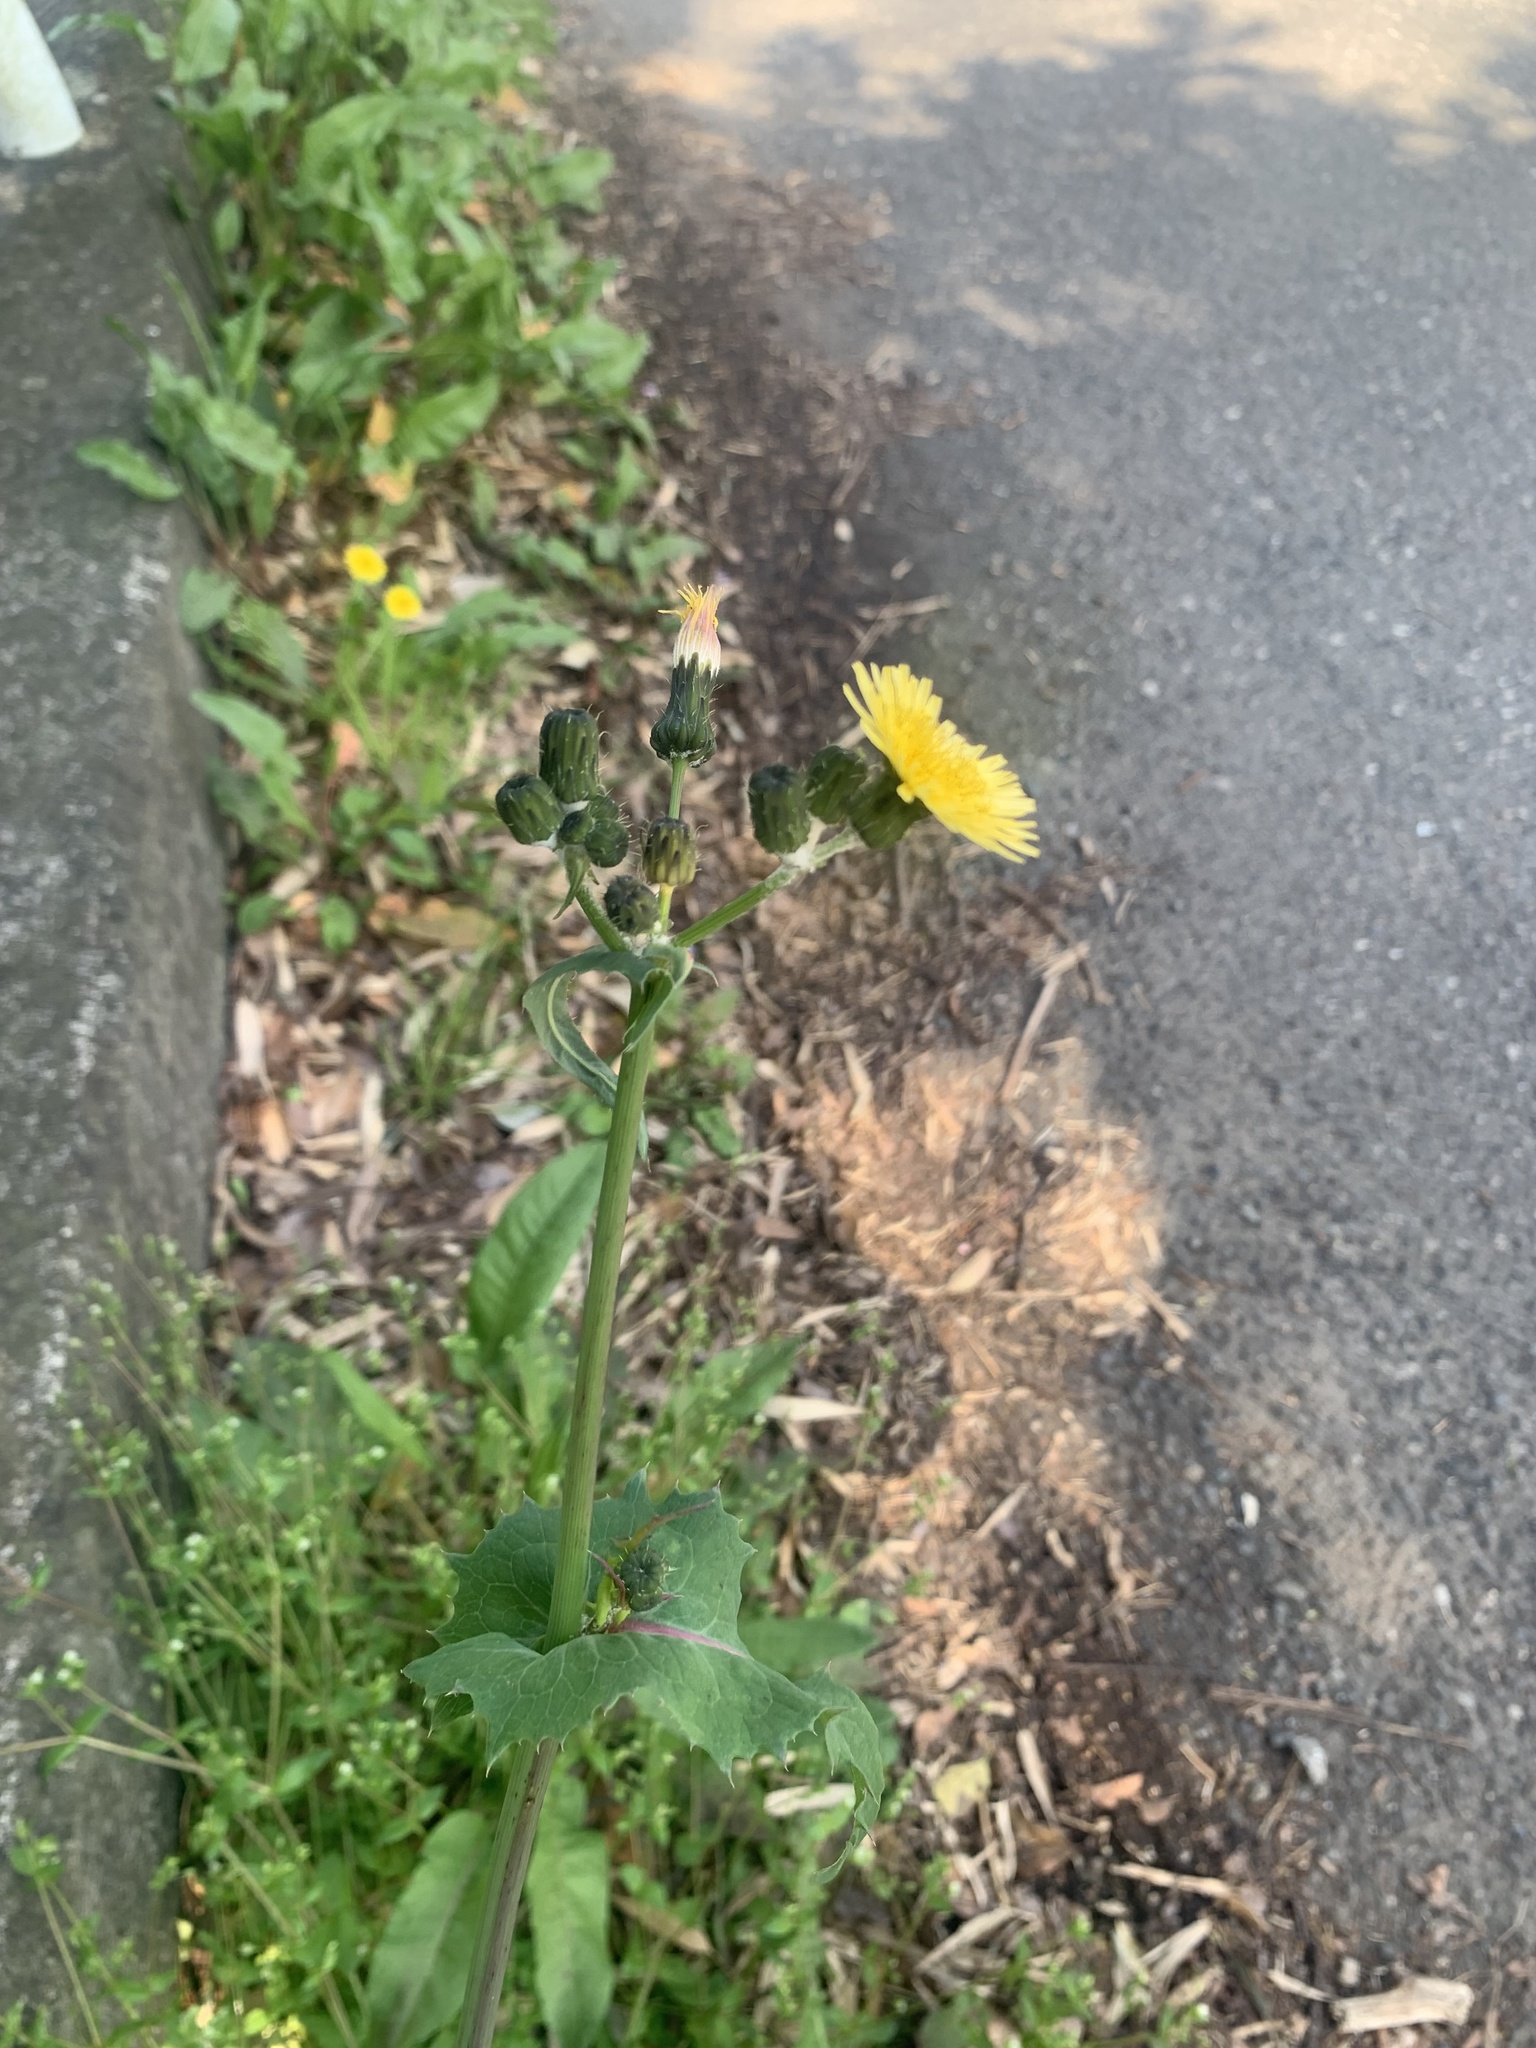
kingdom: Plantae
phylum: Tracheophyta
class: Magnoliopsida
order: Asterales
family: Asteraceae
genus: Sonchus
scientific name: Sonchus oleraceus
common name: Common sowthistle
